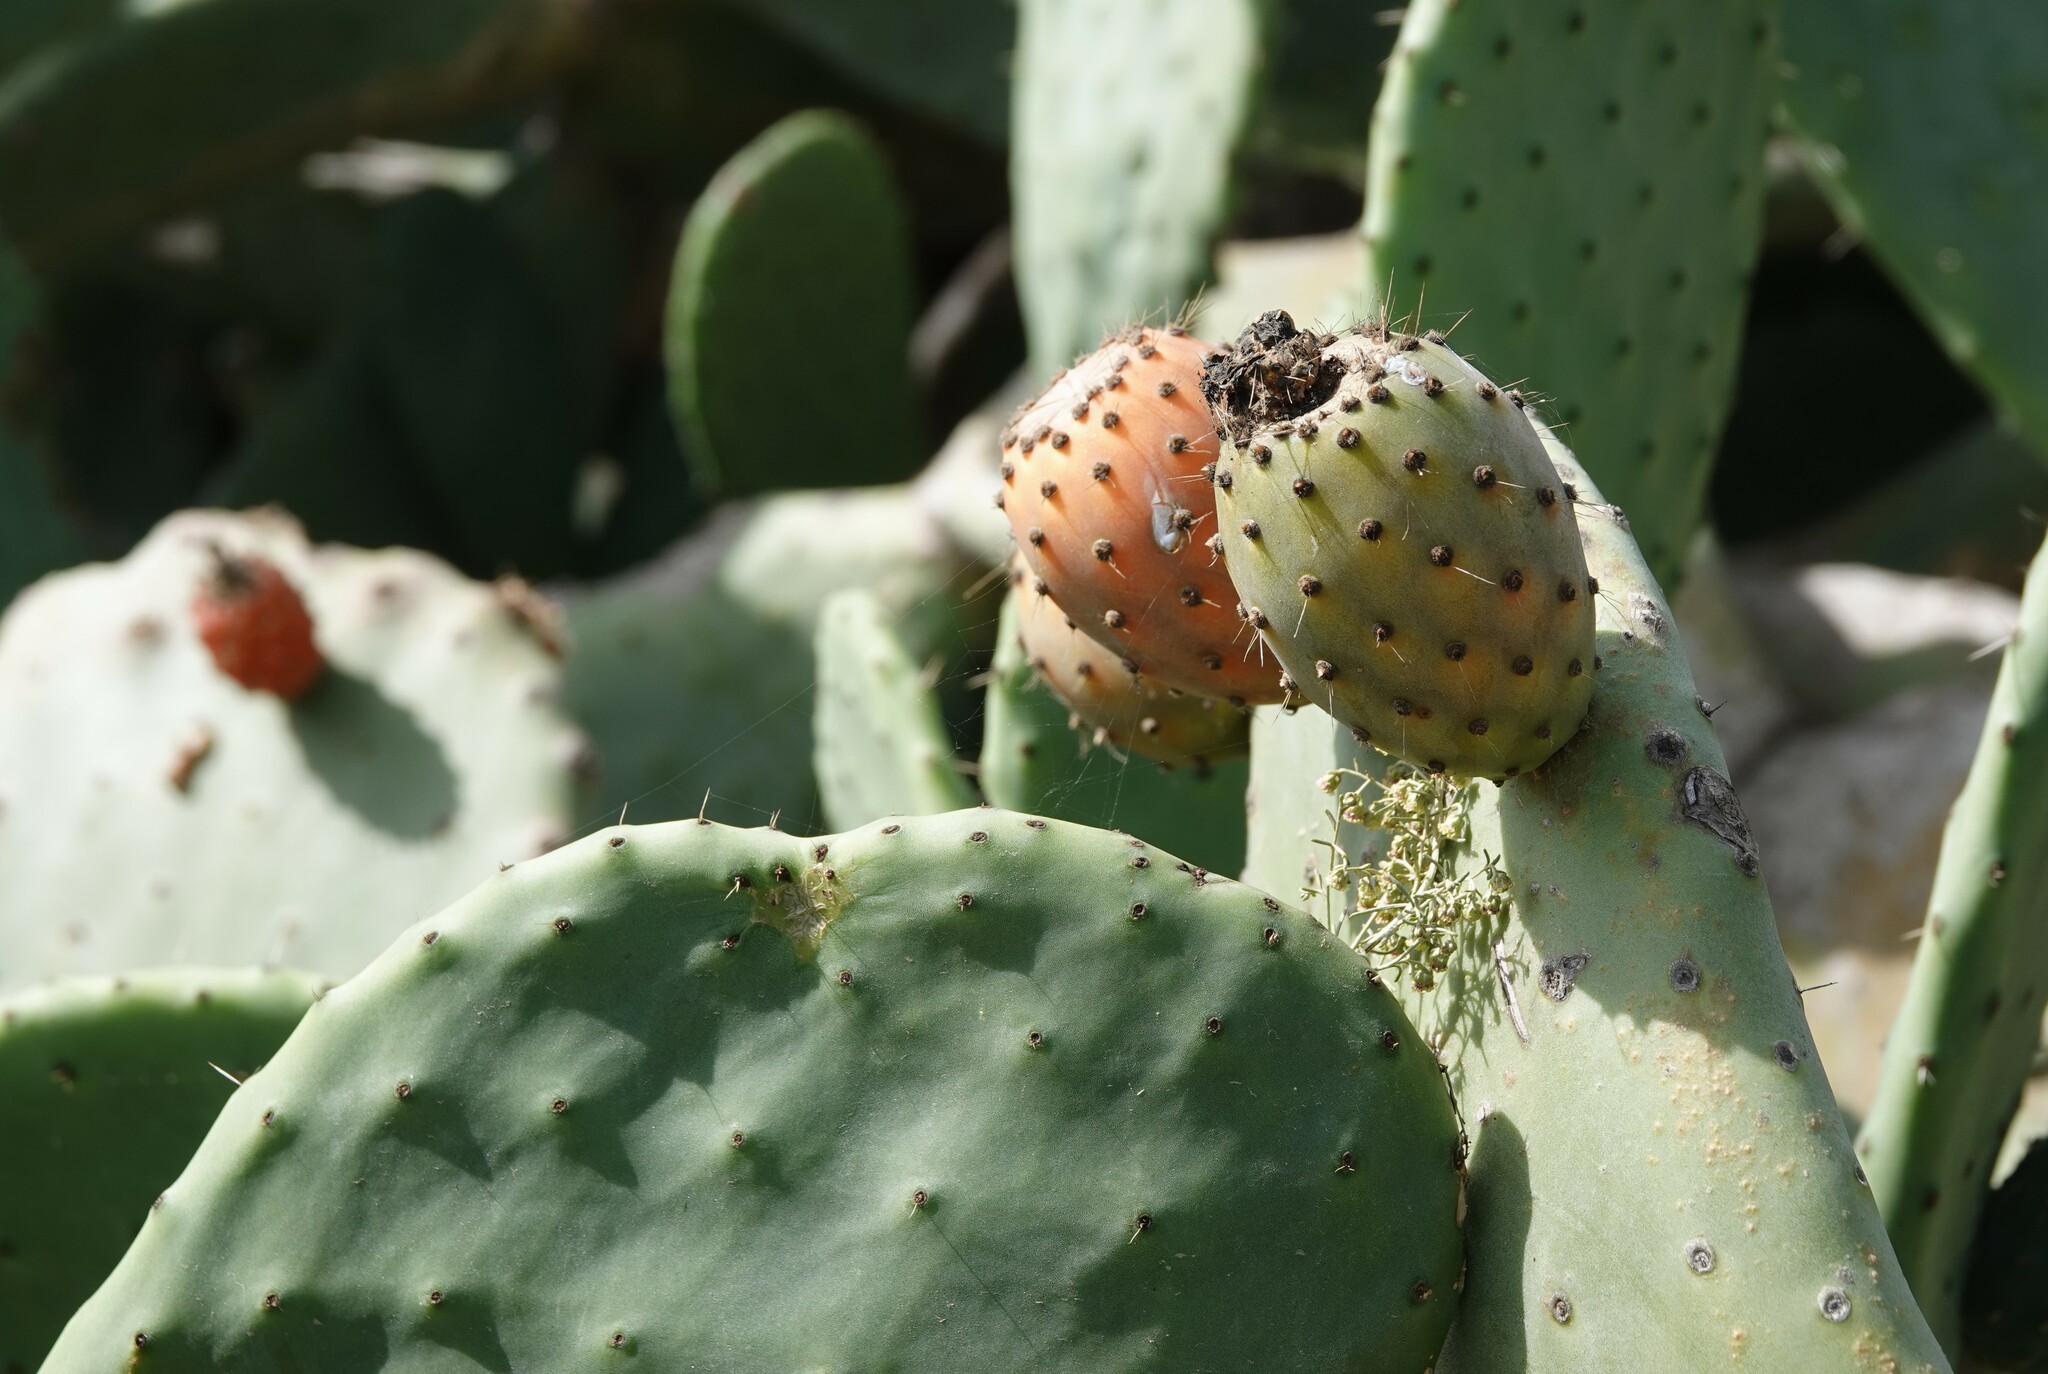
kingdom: Plantae
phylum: Tracheophyta
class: Magnoliopsida
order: Caryophyllales
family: Cactaceae
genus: Opuntia
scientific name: Opuntia ficus-indica
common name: Barbary fig
